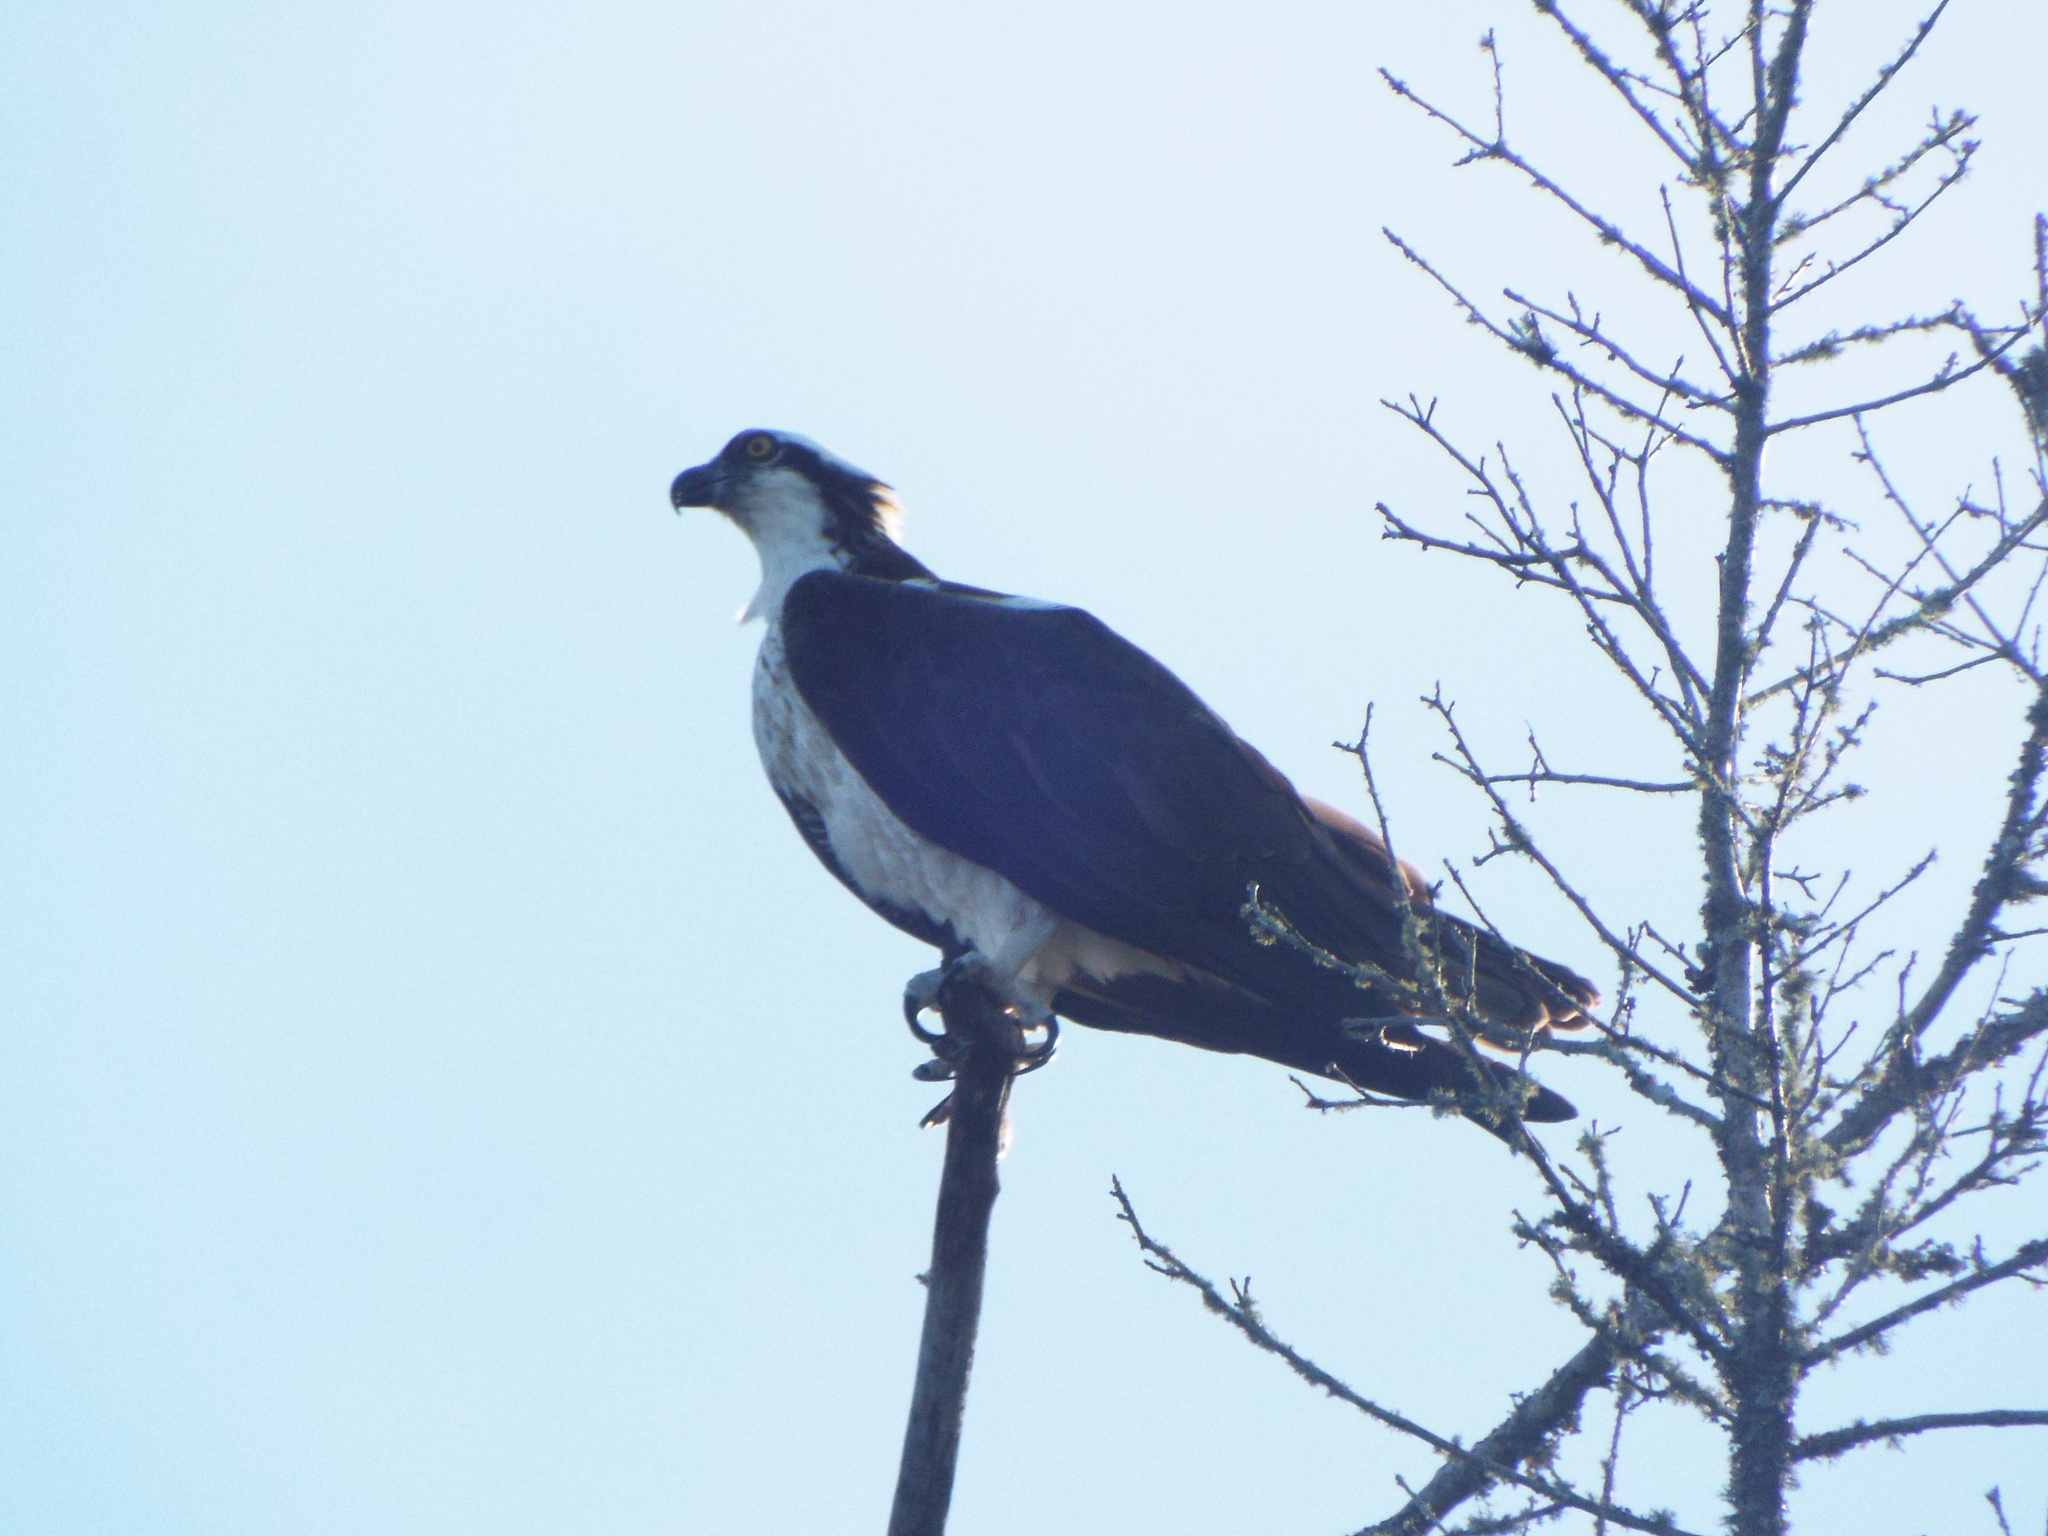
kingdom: Animalia
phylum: Chordata
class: Aves
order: Accipitriformes
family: Pandionidae
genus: Pandion
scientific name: Pandion haliaetus
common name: Osprey
